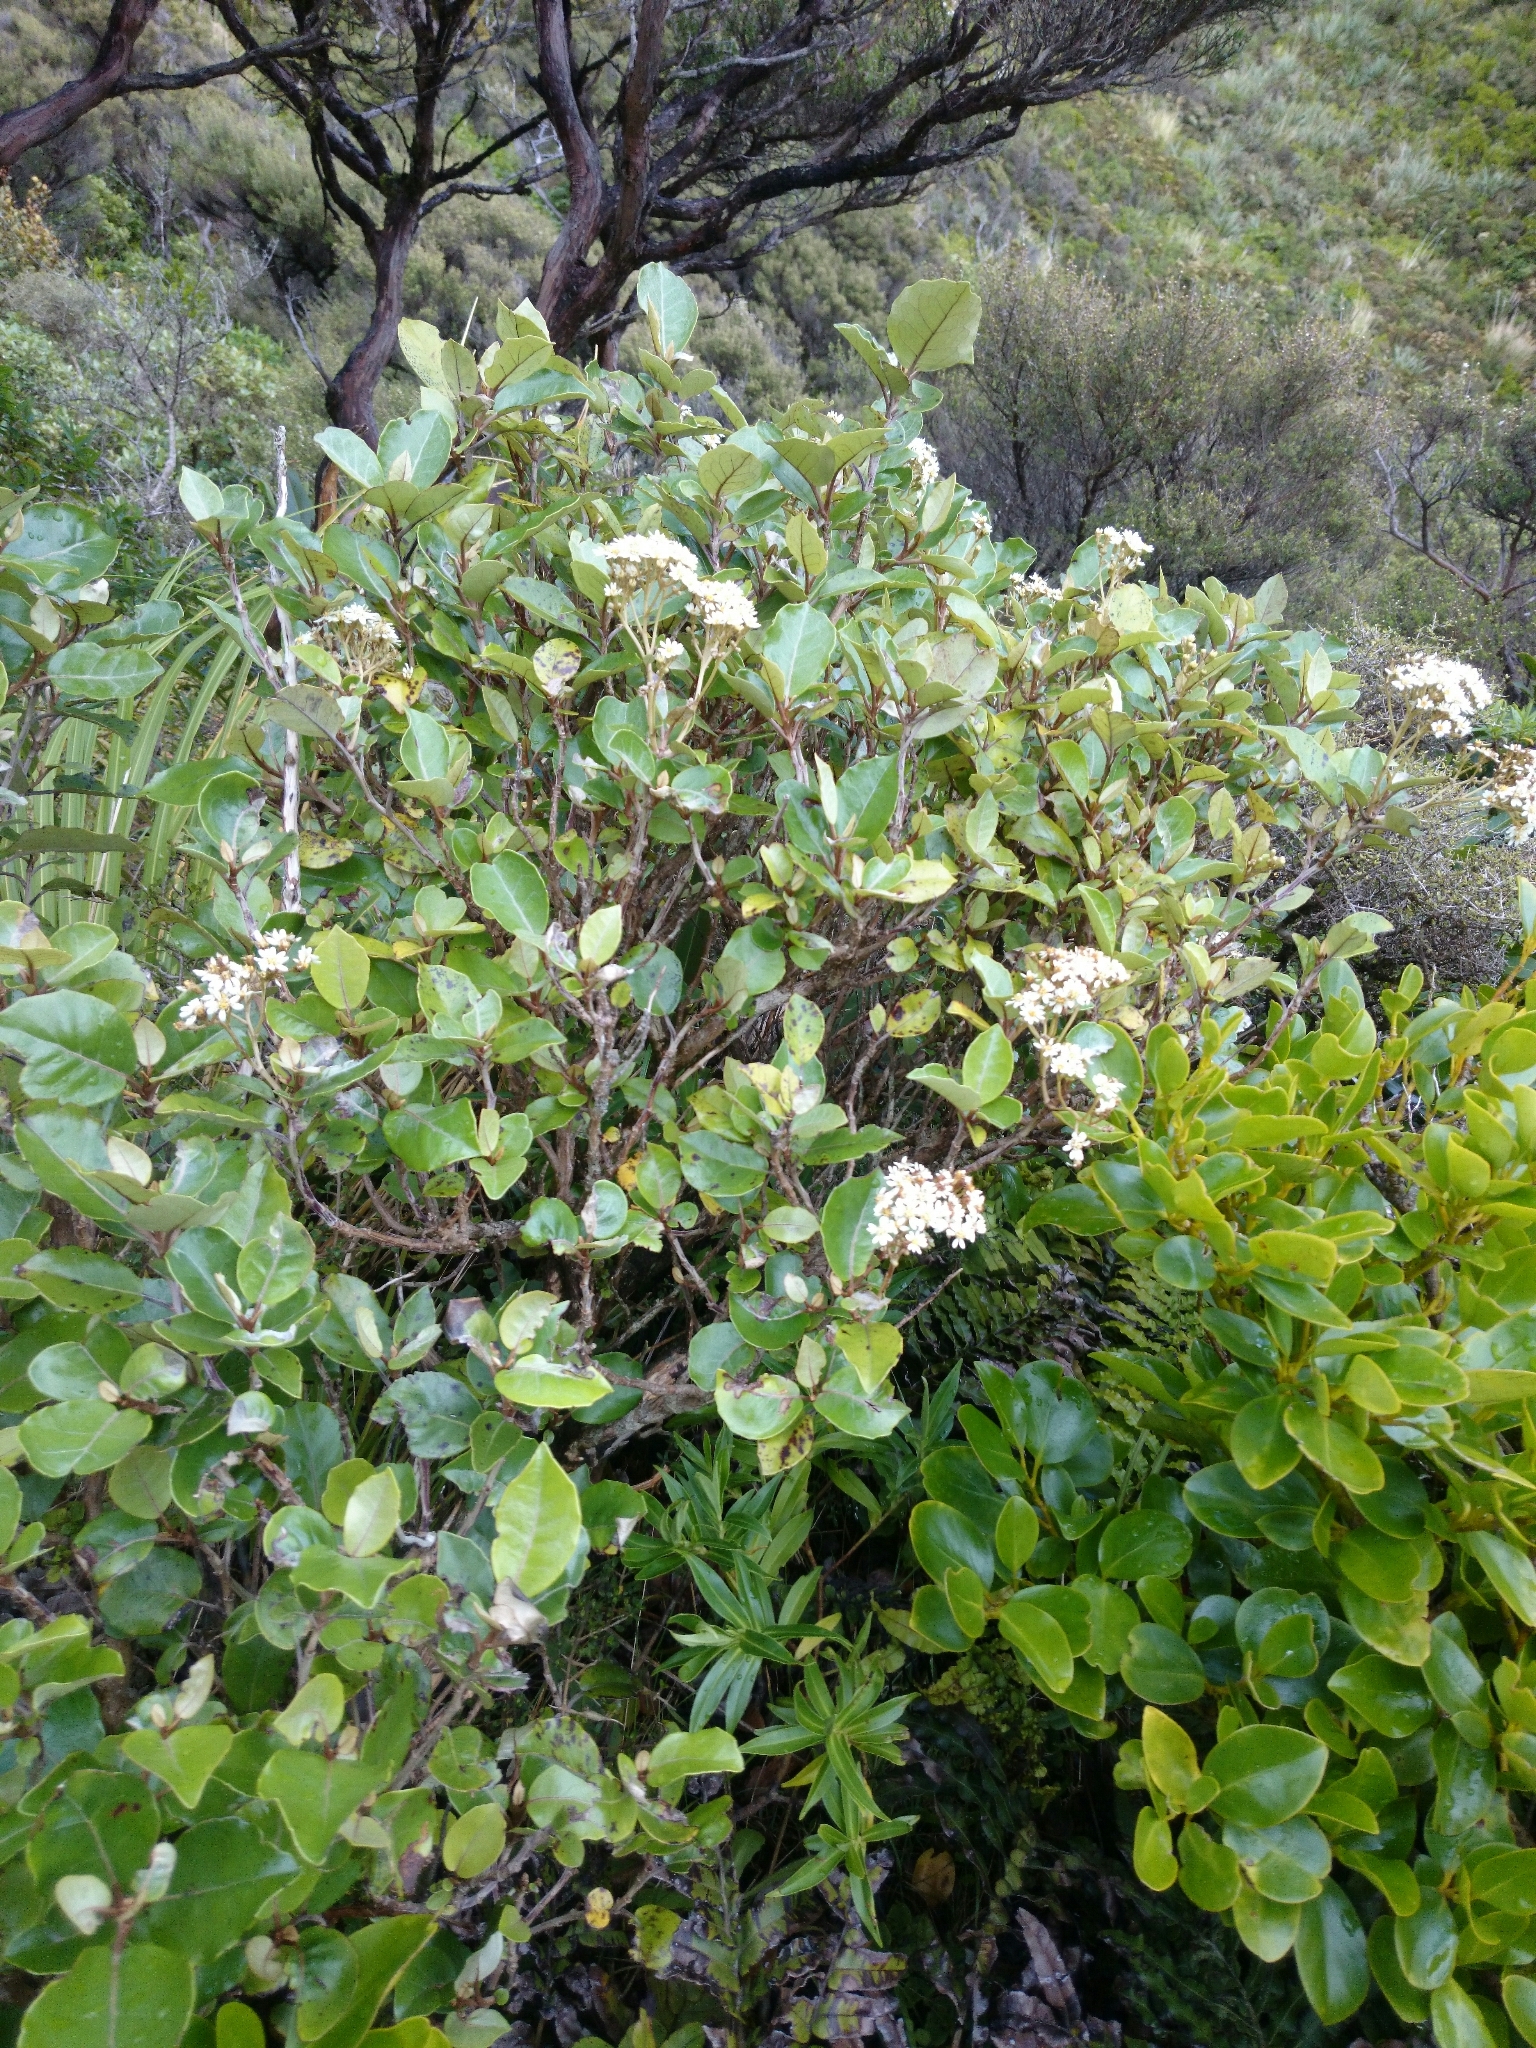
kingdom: Plantae
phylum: Tracheophyta
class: Magnoliopsida
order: Asterales
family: Asteraceae
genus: Olearia
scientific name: Olearia arborescens
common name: Glossy tree daisy
